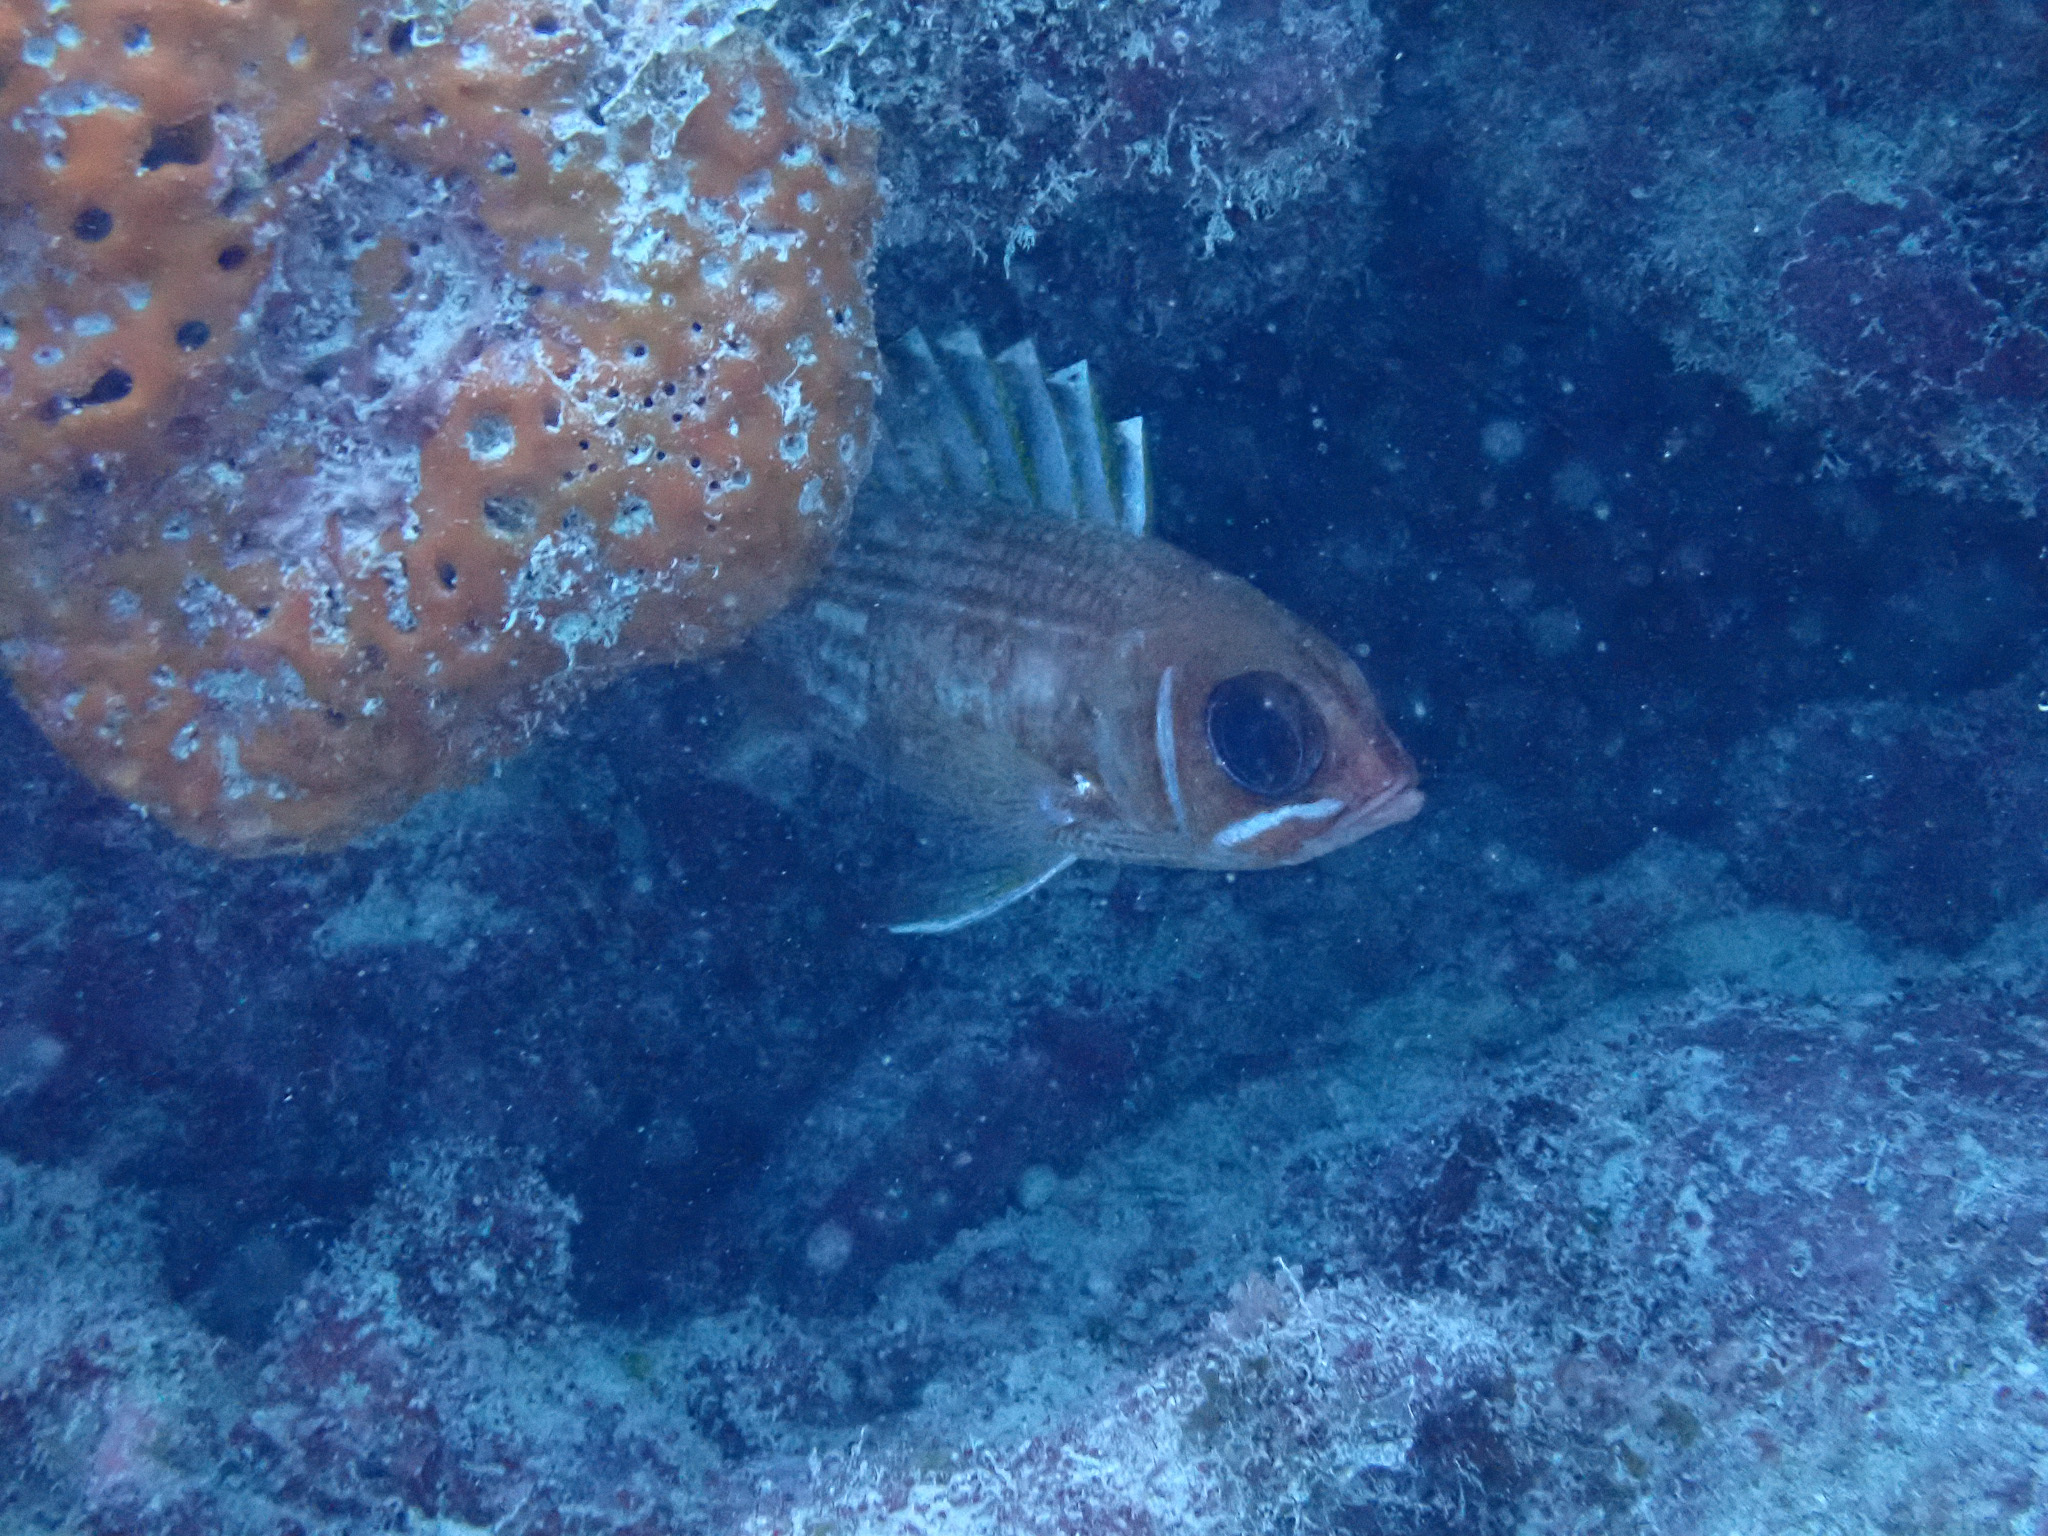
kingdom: Animalia
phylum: Chordata
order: Beryciformes
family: Holocentridae
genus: Holocentrus
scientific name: Holocentrus rufus
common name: Longspine squirrelfish
